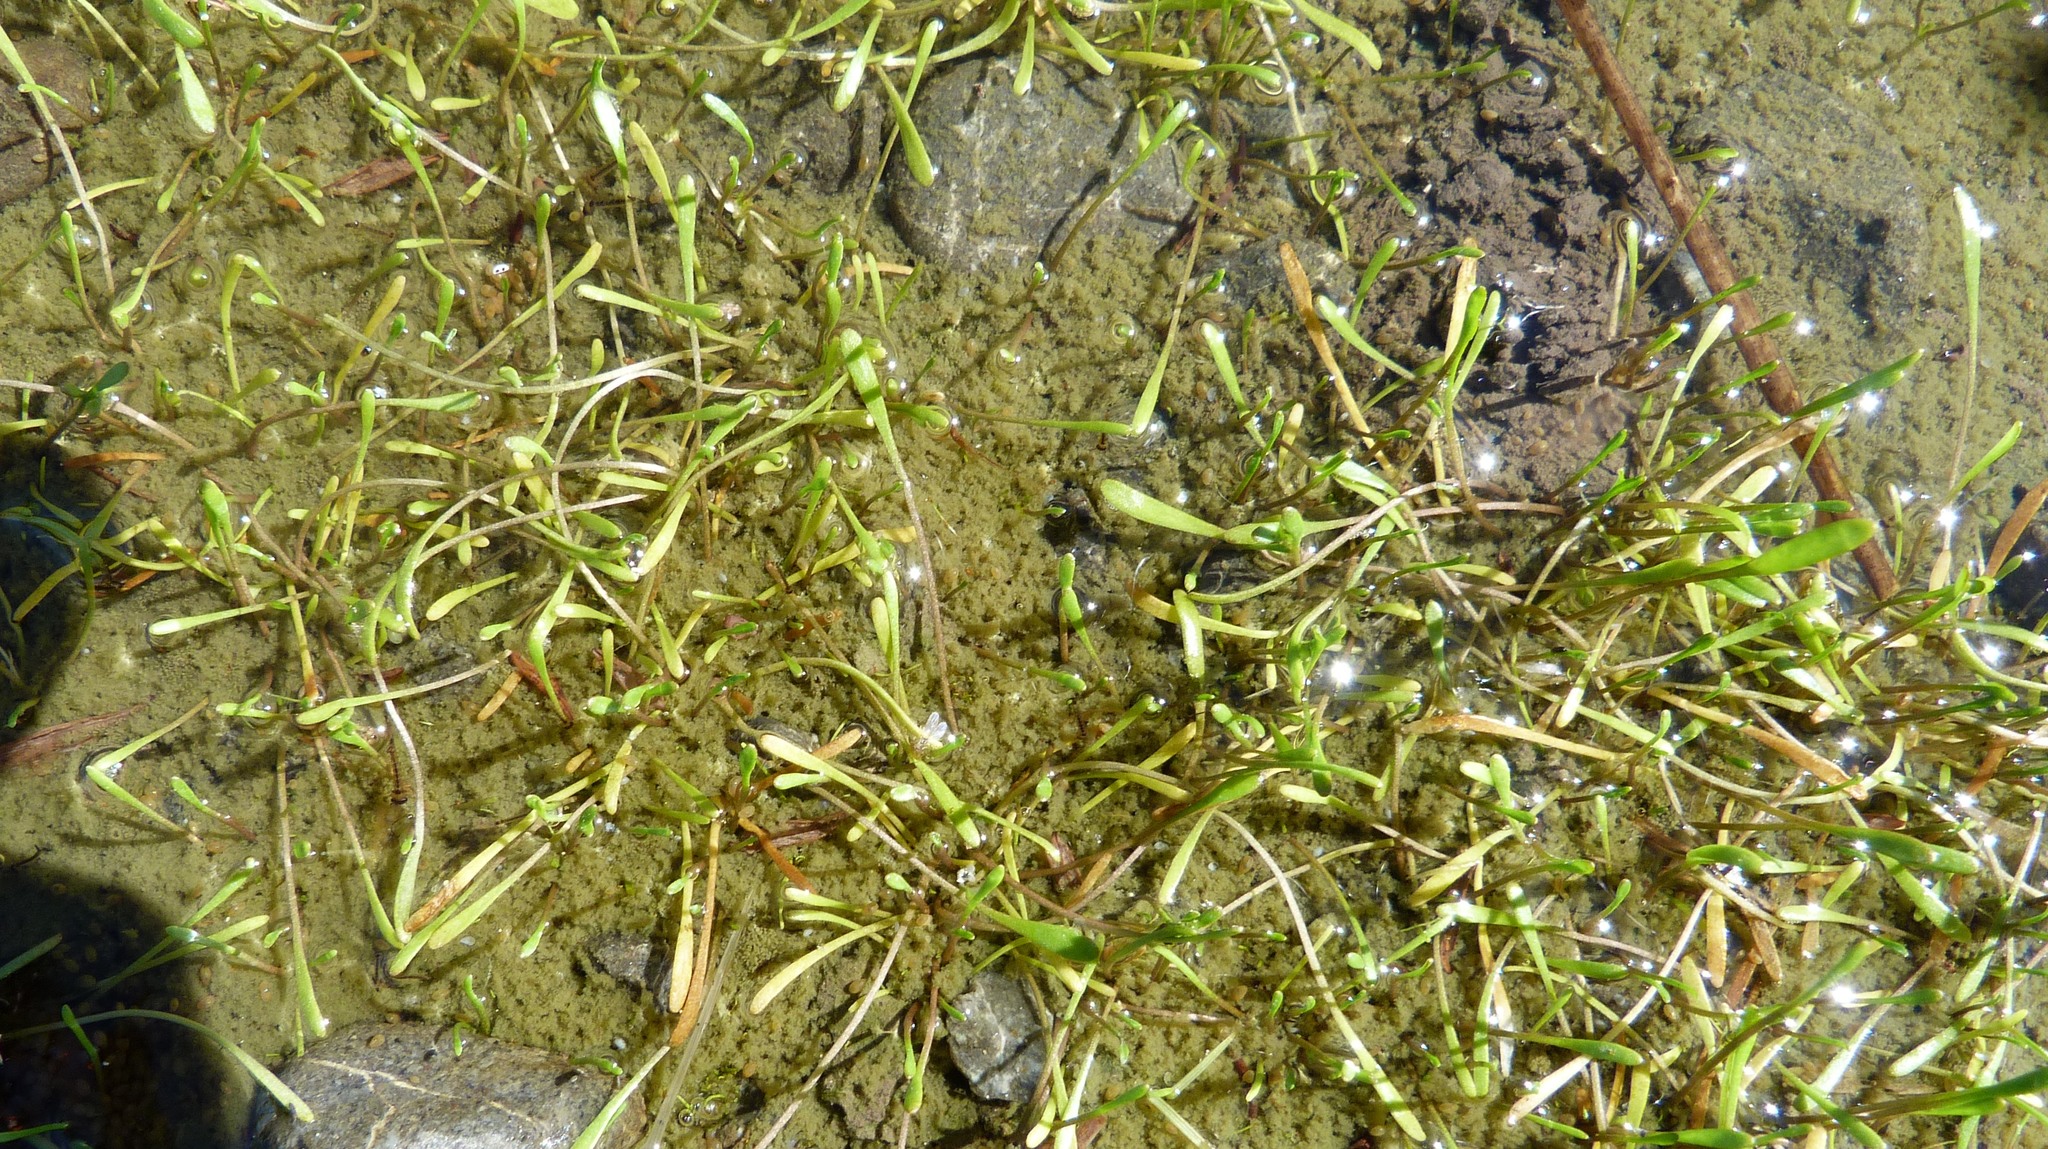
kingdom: Plantae
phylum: Tracheophyta
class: Magnoliopsida
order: Lamiales
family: Scrophulariaceae
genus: Limosella
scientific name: Limosella australis
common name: Welsh mudwort
